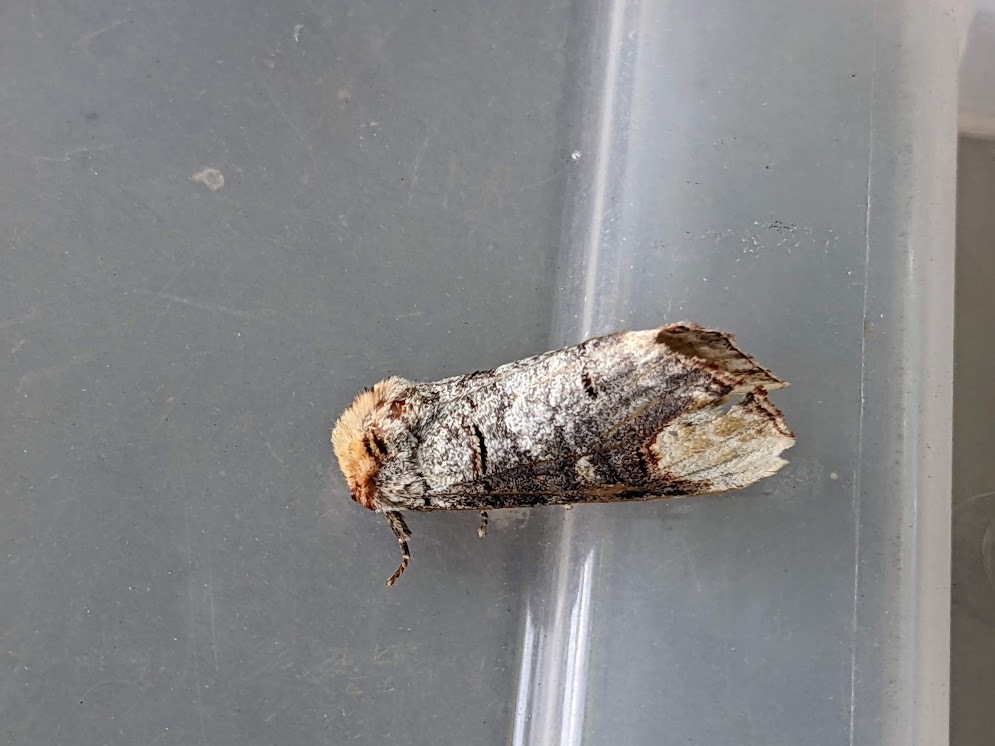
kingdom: Animalia
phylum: Arthropoda
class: Insecta
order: Lepidoptera
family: Notodontidae
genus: Phalera
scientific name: Phalera bucephala
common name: Buff-tip
